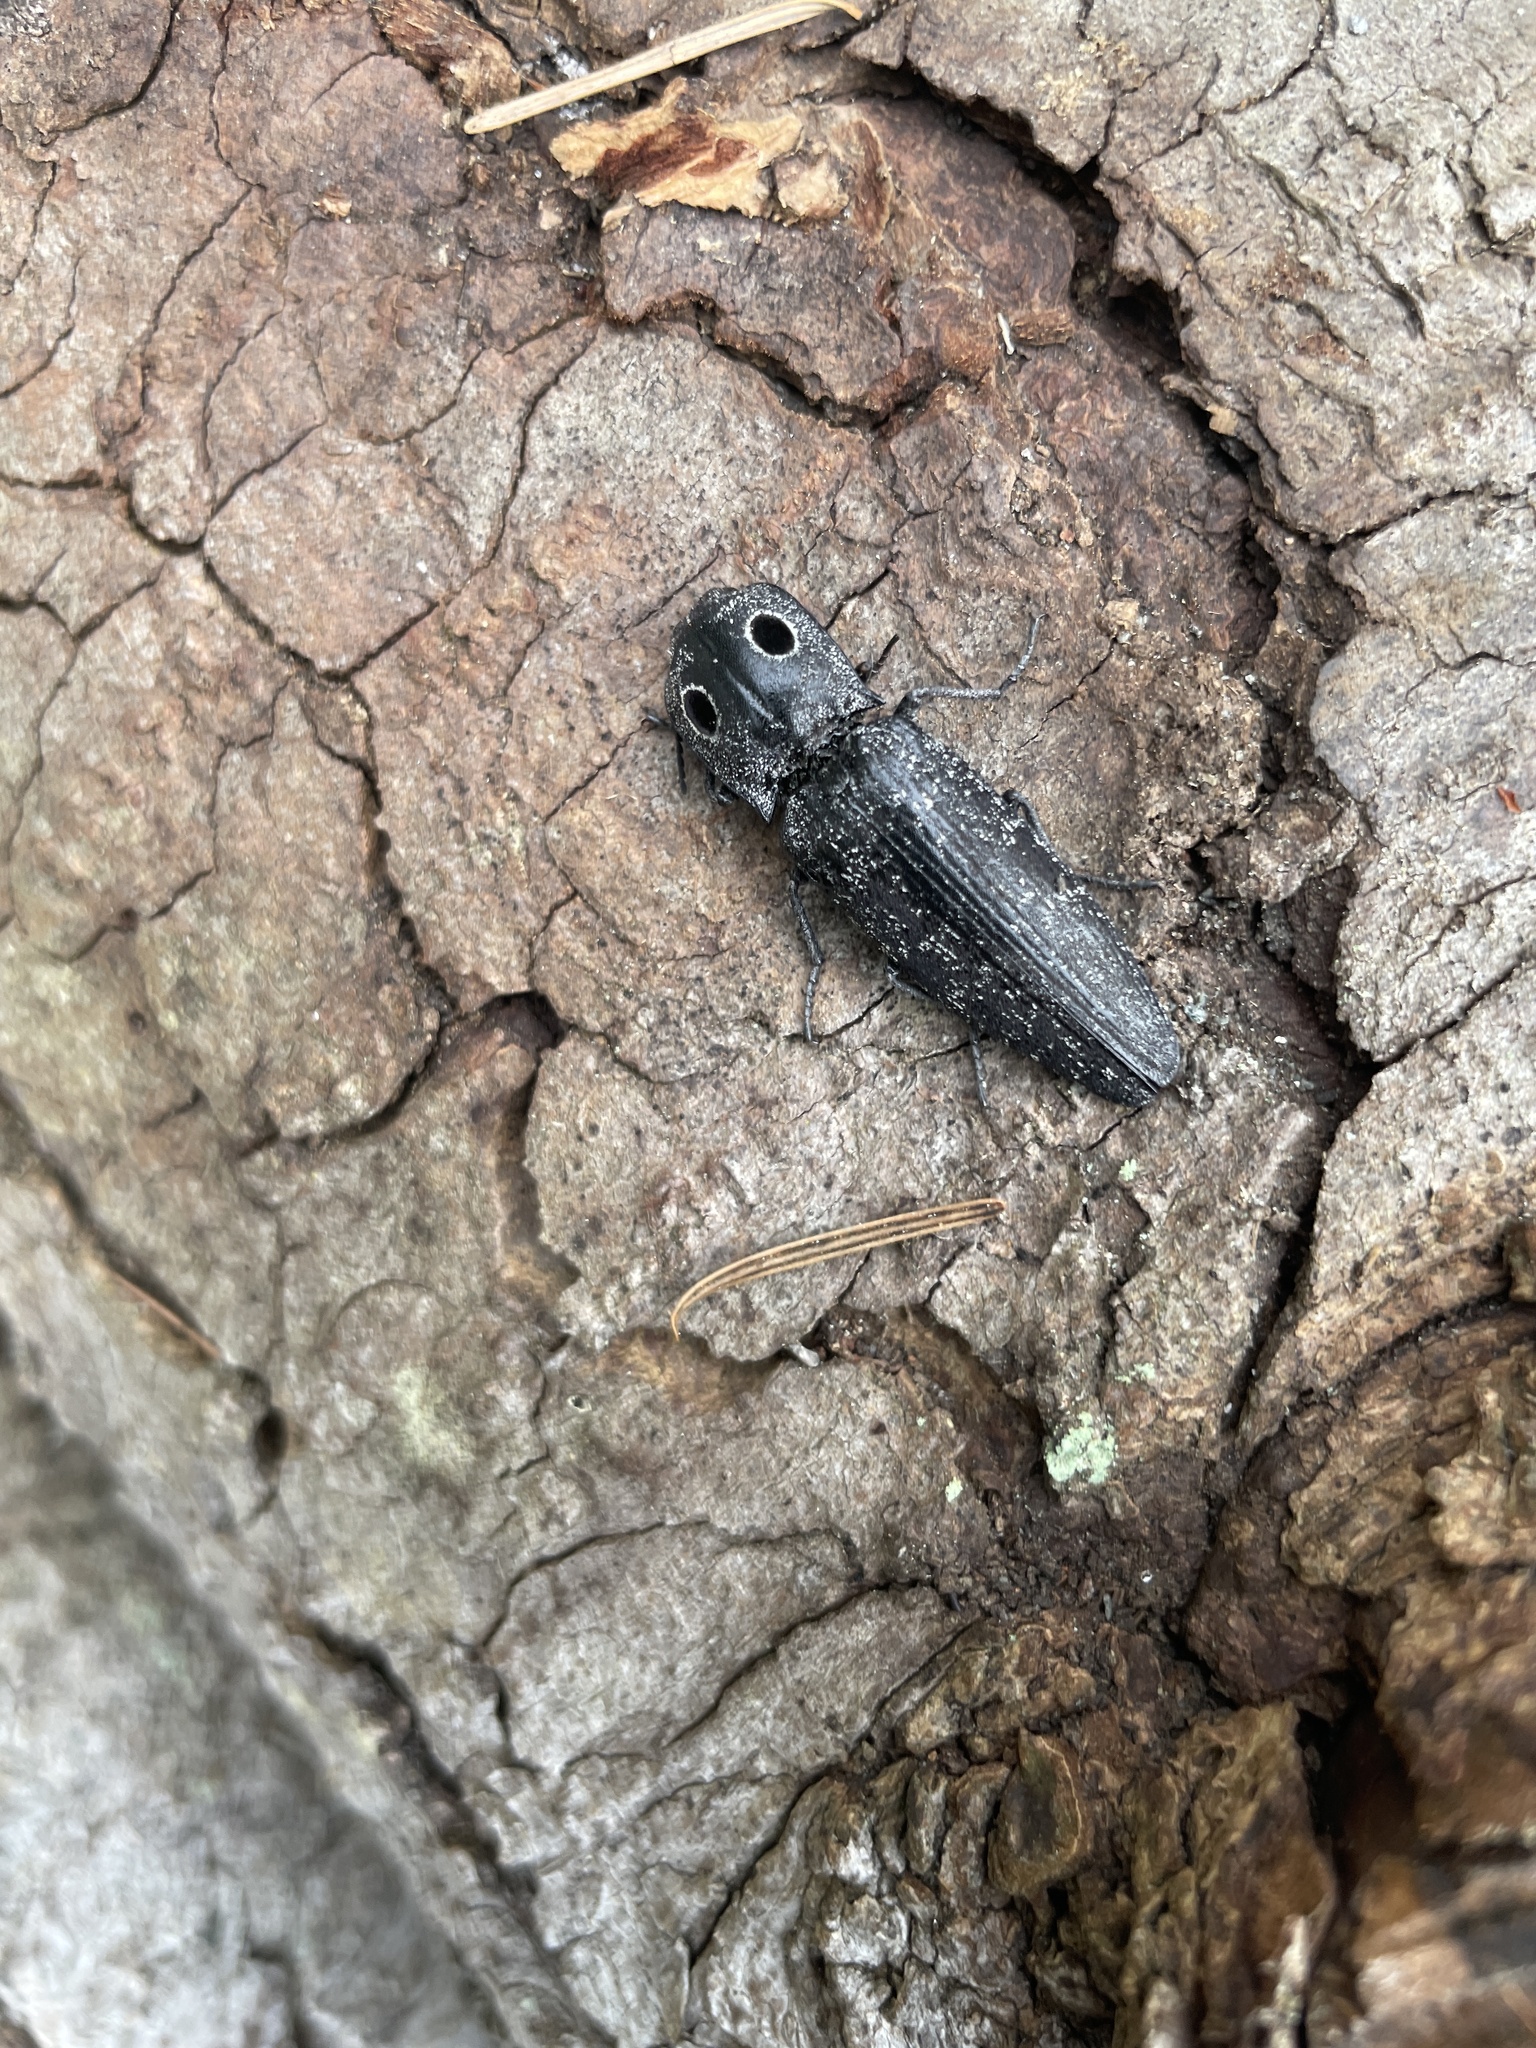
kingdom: Animalia
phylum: Arthropoda
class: Insecta
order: Coleoptera
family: Elateridae
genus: Alaus
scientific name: Alaus melanops
